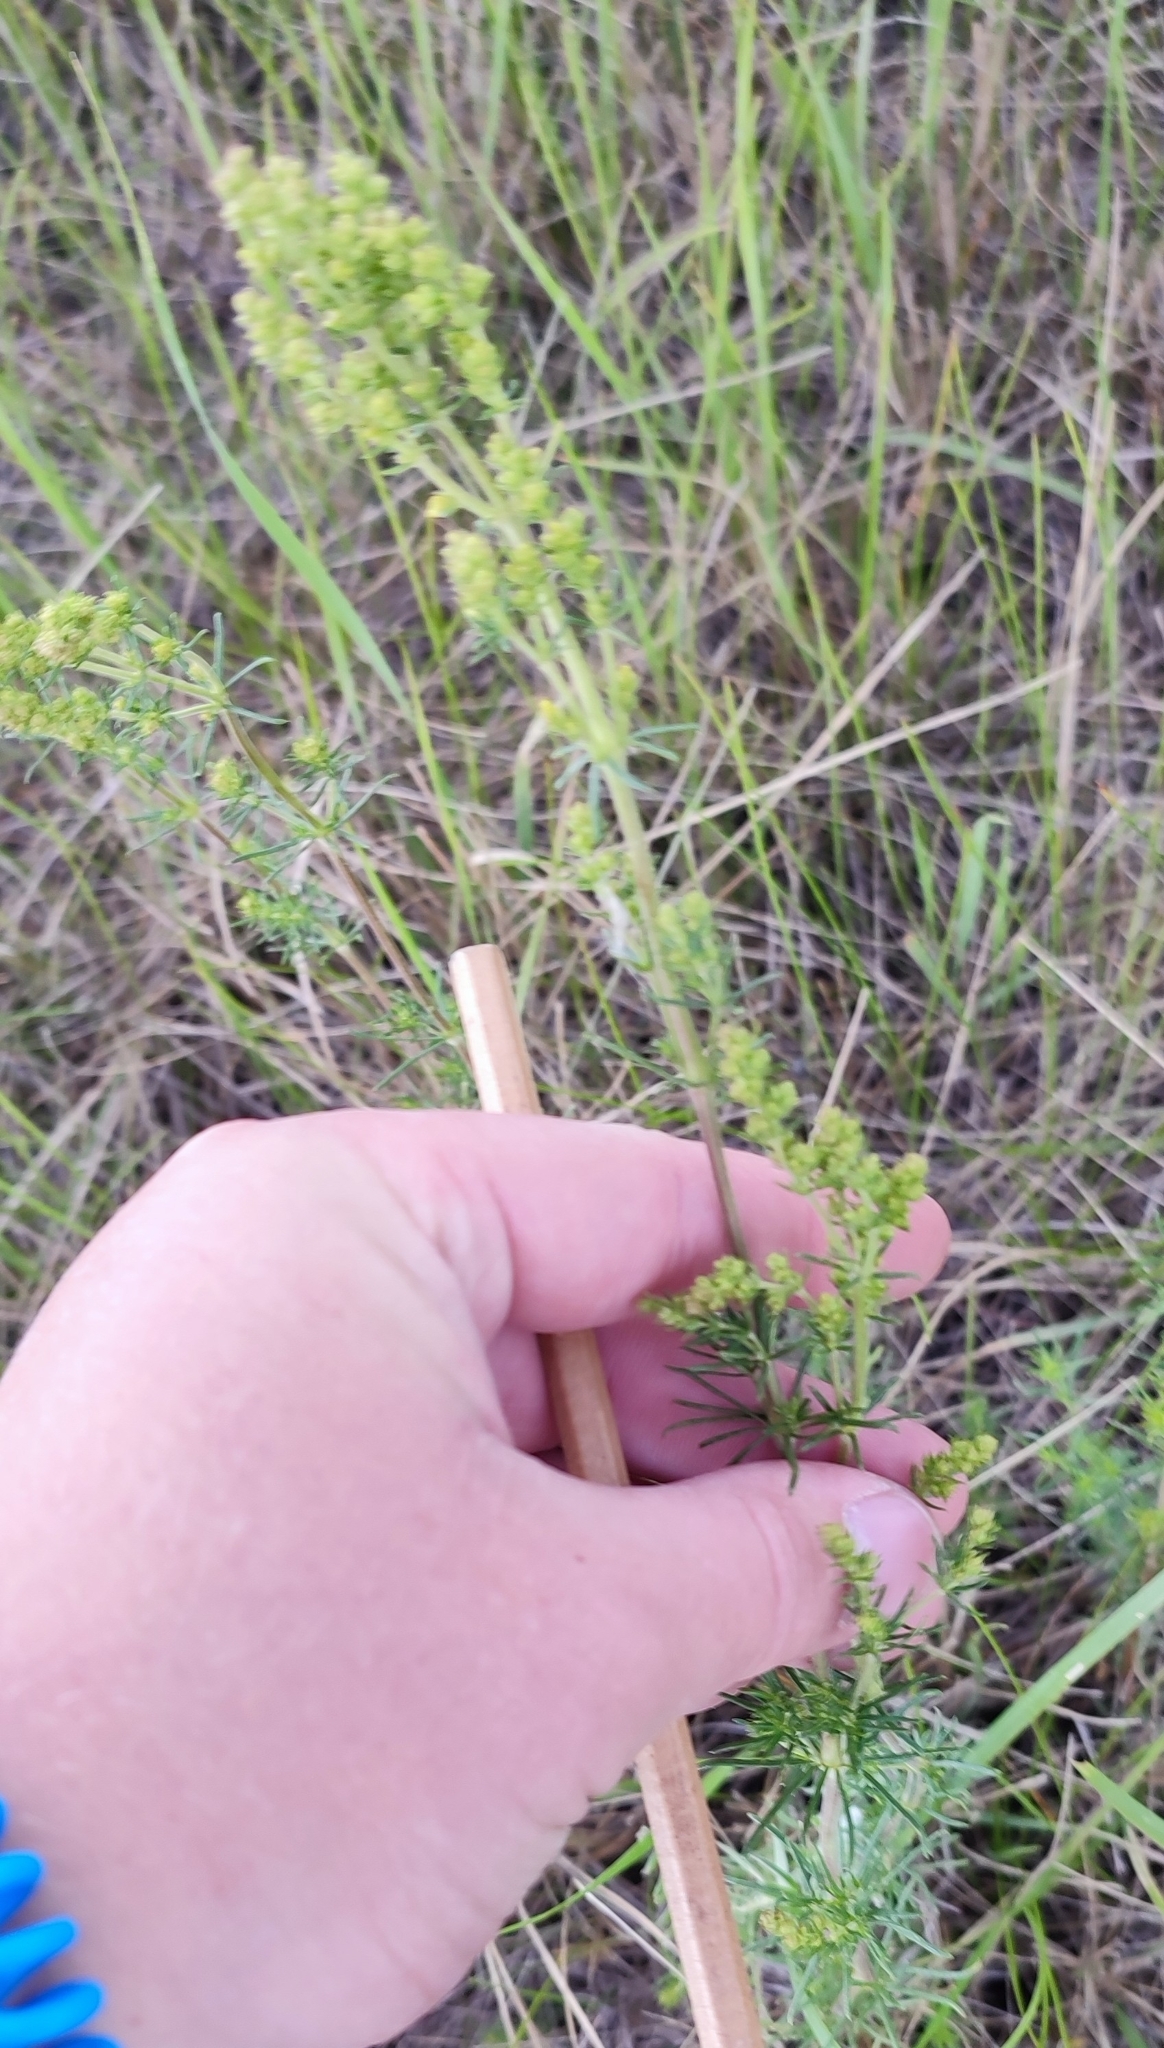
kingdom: Plantae
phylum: Tracheophyta
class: Magnoliopsida
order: Gentianales
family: Rubiaceae
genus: Galium
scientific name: Galium verum
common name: Lady's bedstraw
